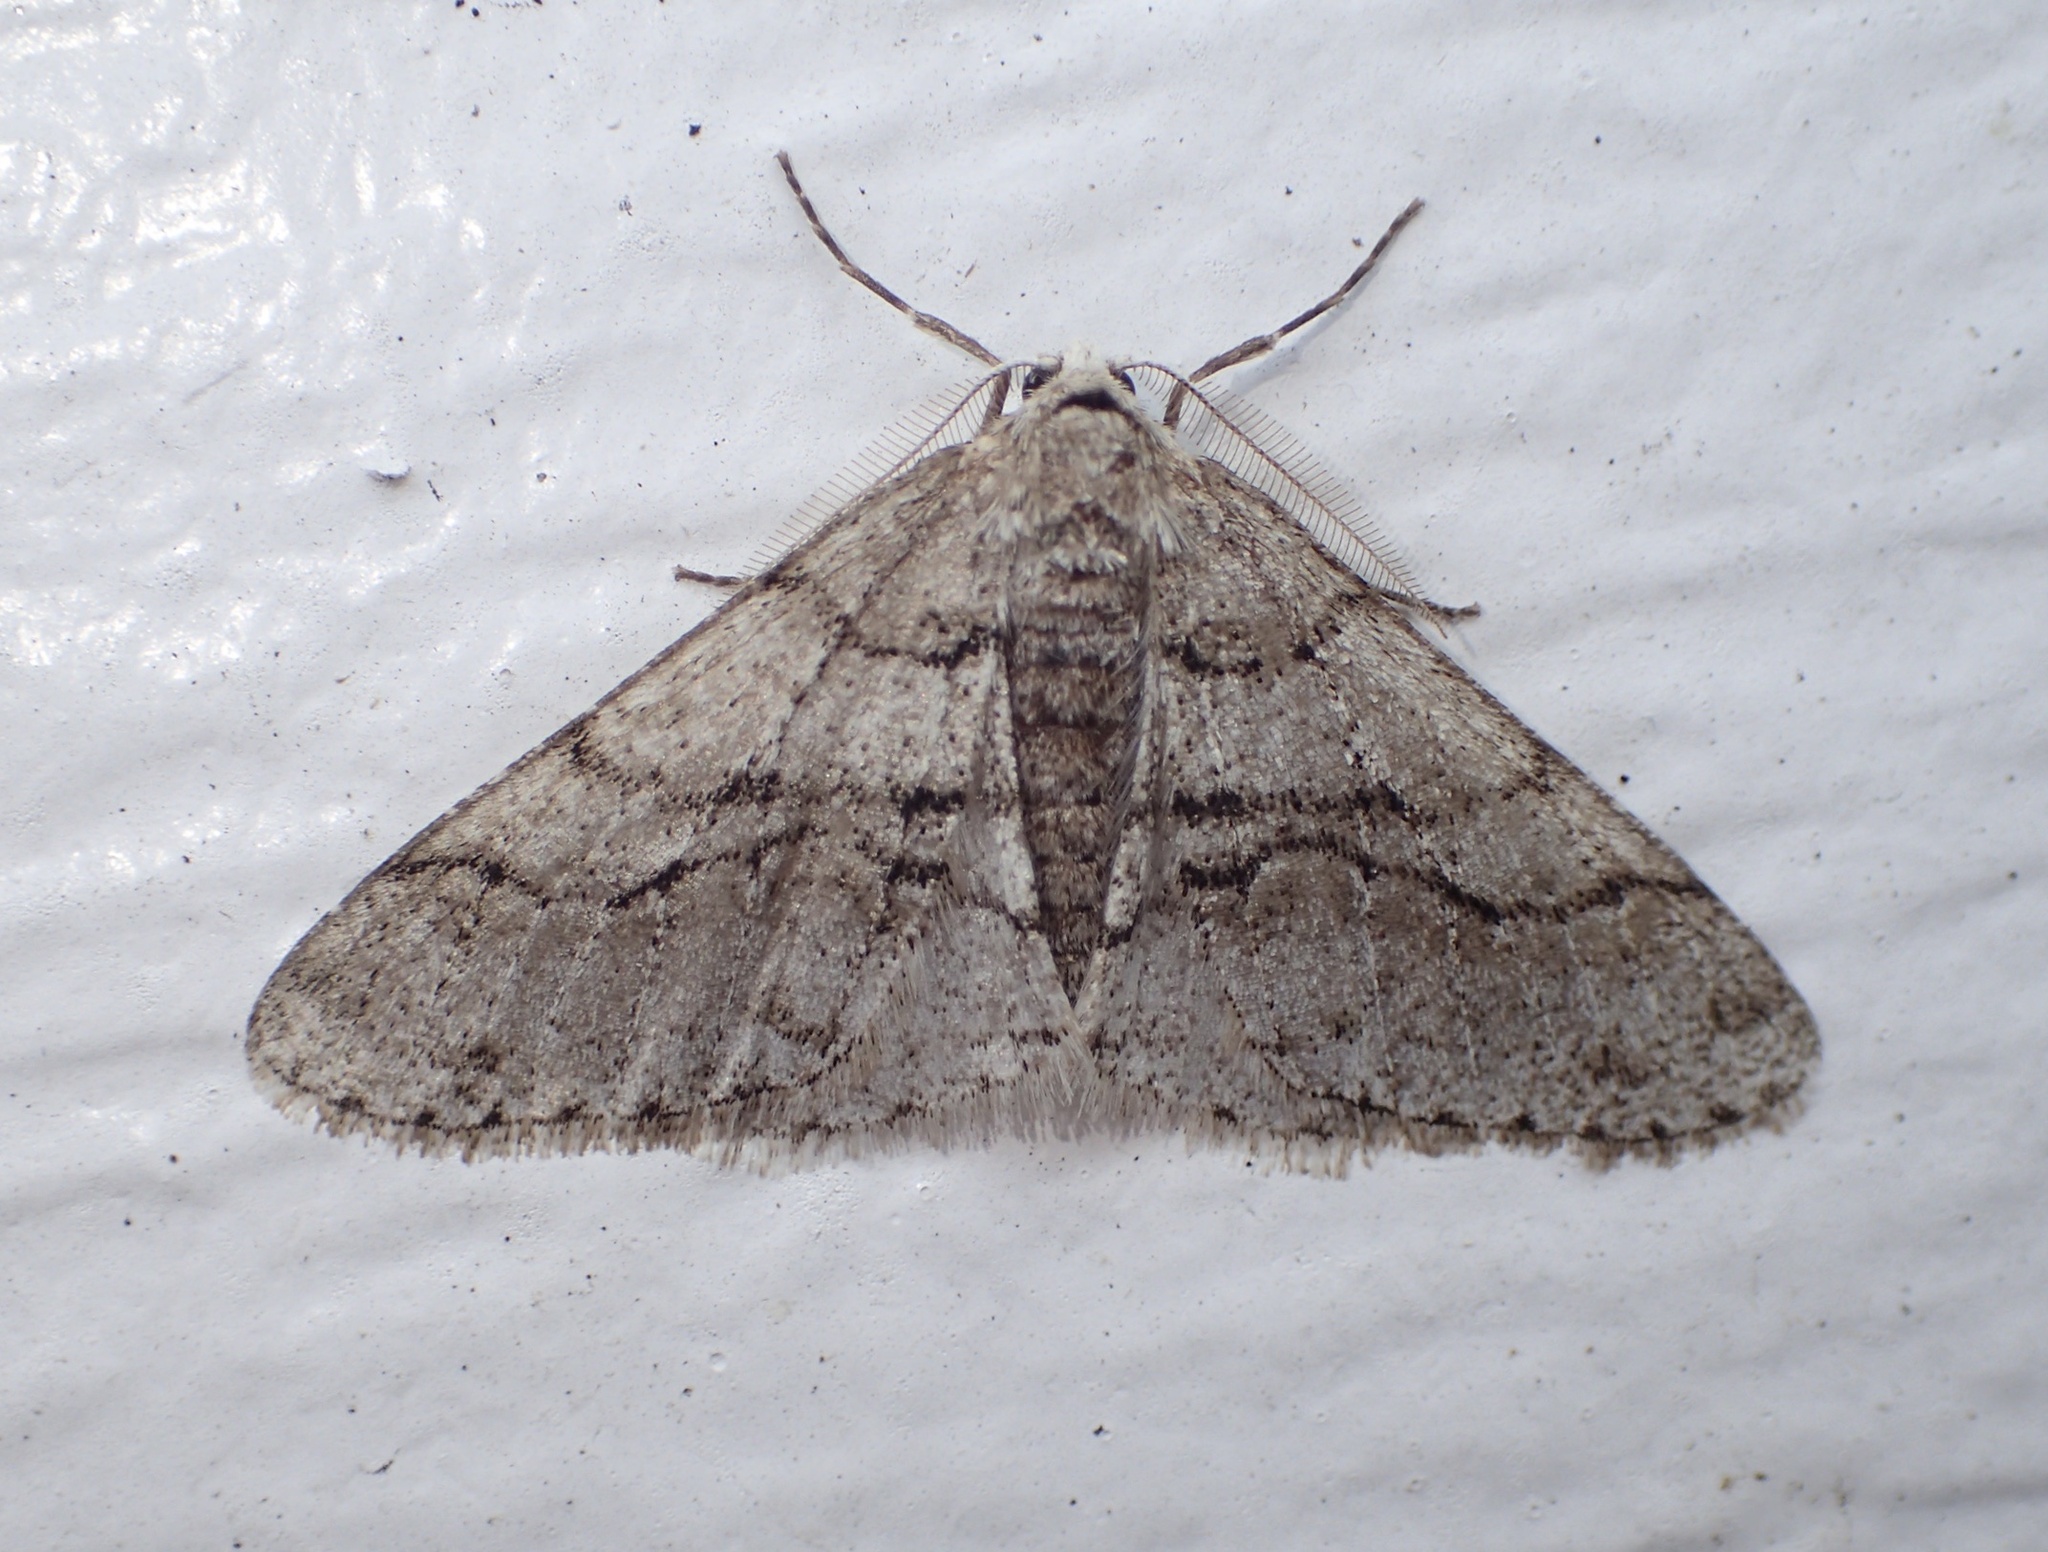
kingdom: Animalia
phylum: Arthropoda
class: Insecta
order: Lepidoptera
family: Geometridae
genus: Phigalia
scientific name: Phigalia titea
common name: Spiny looper
